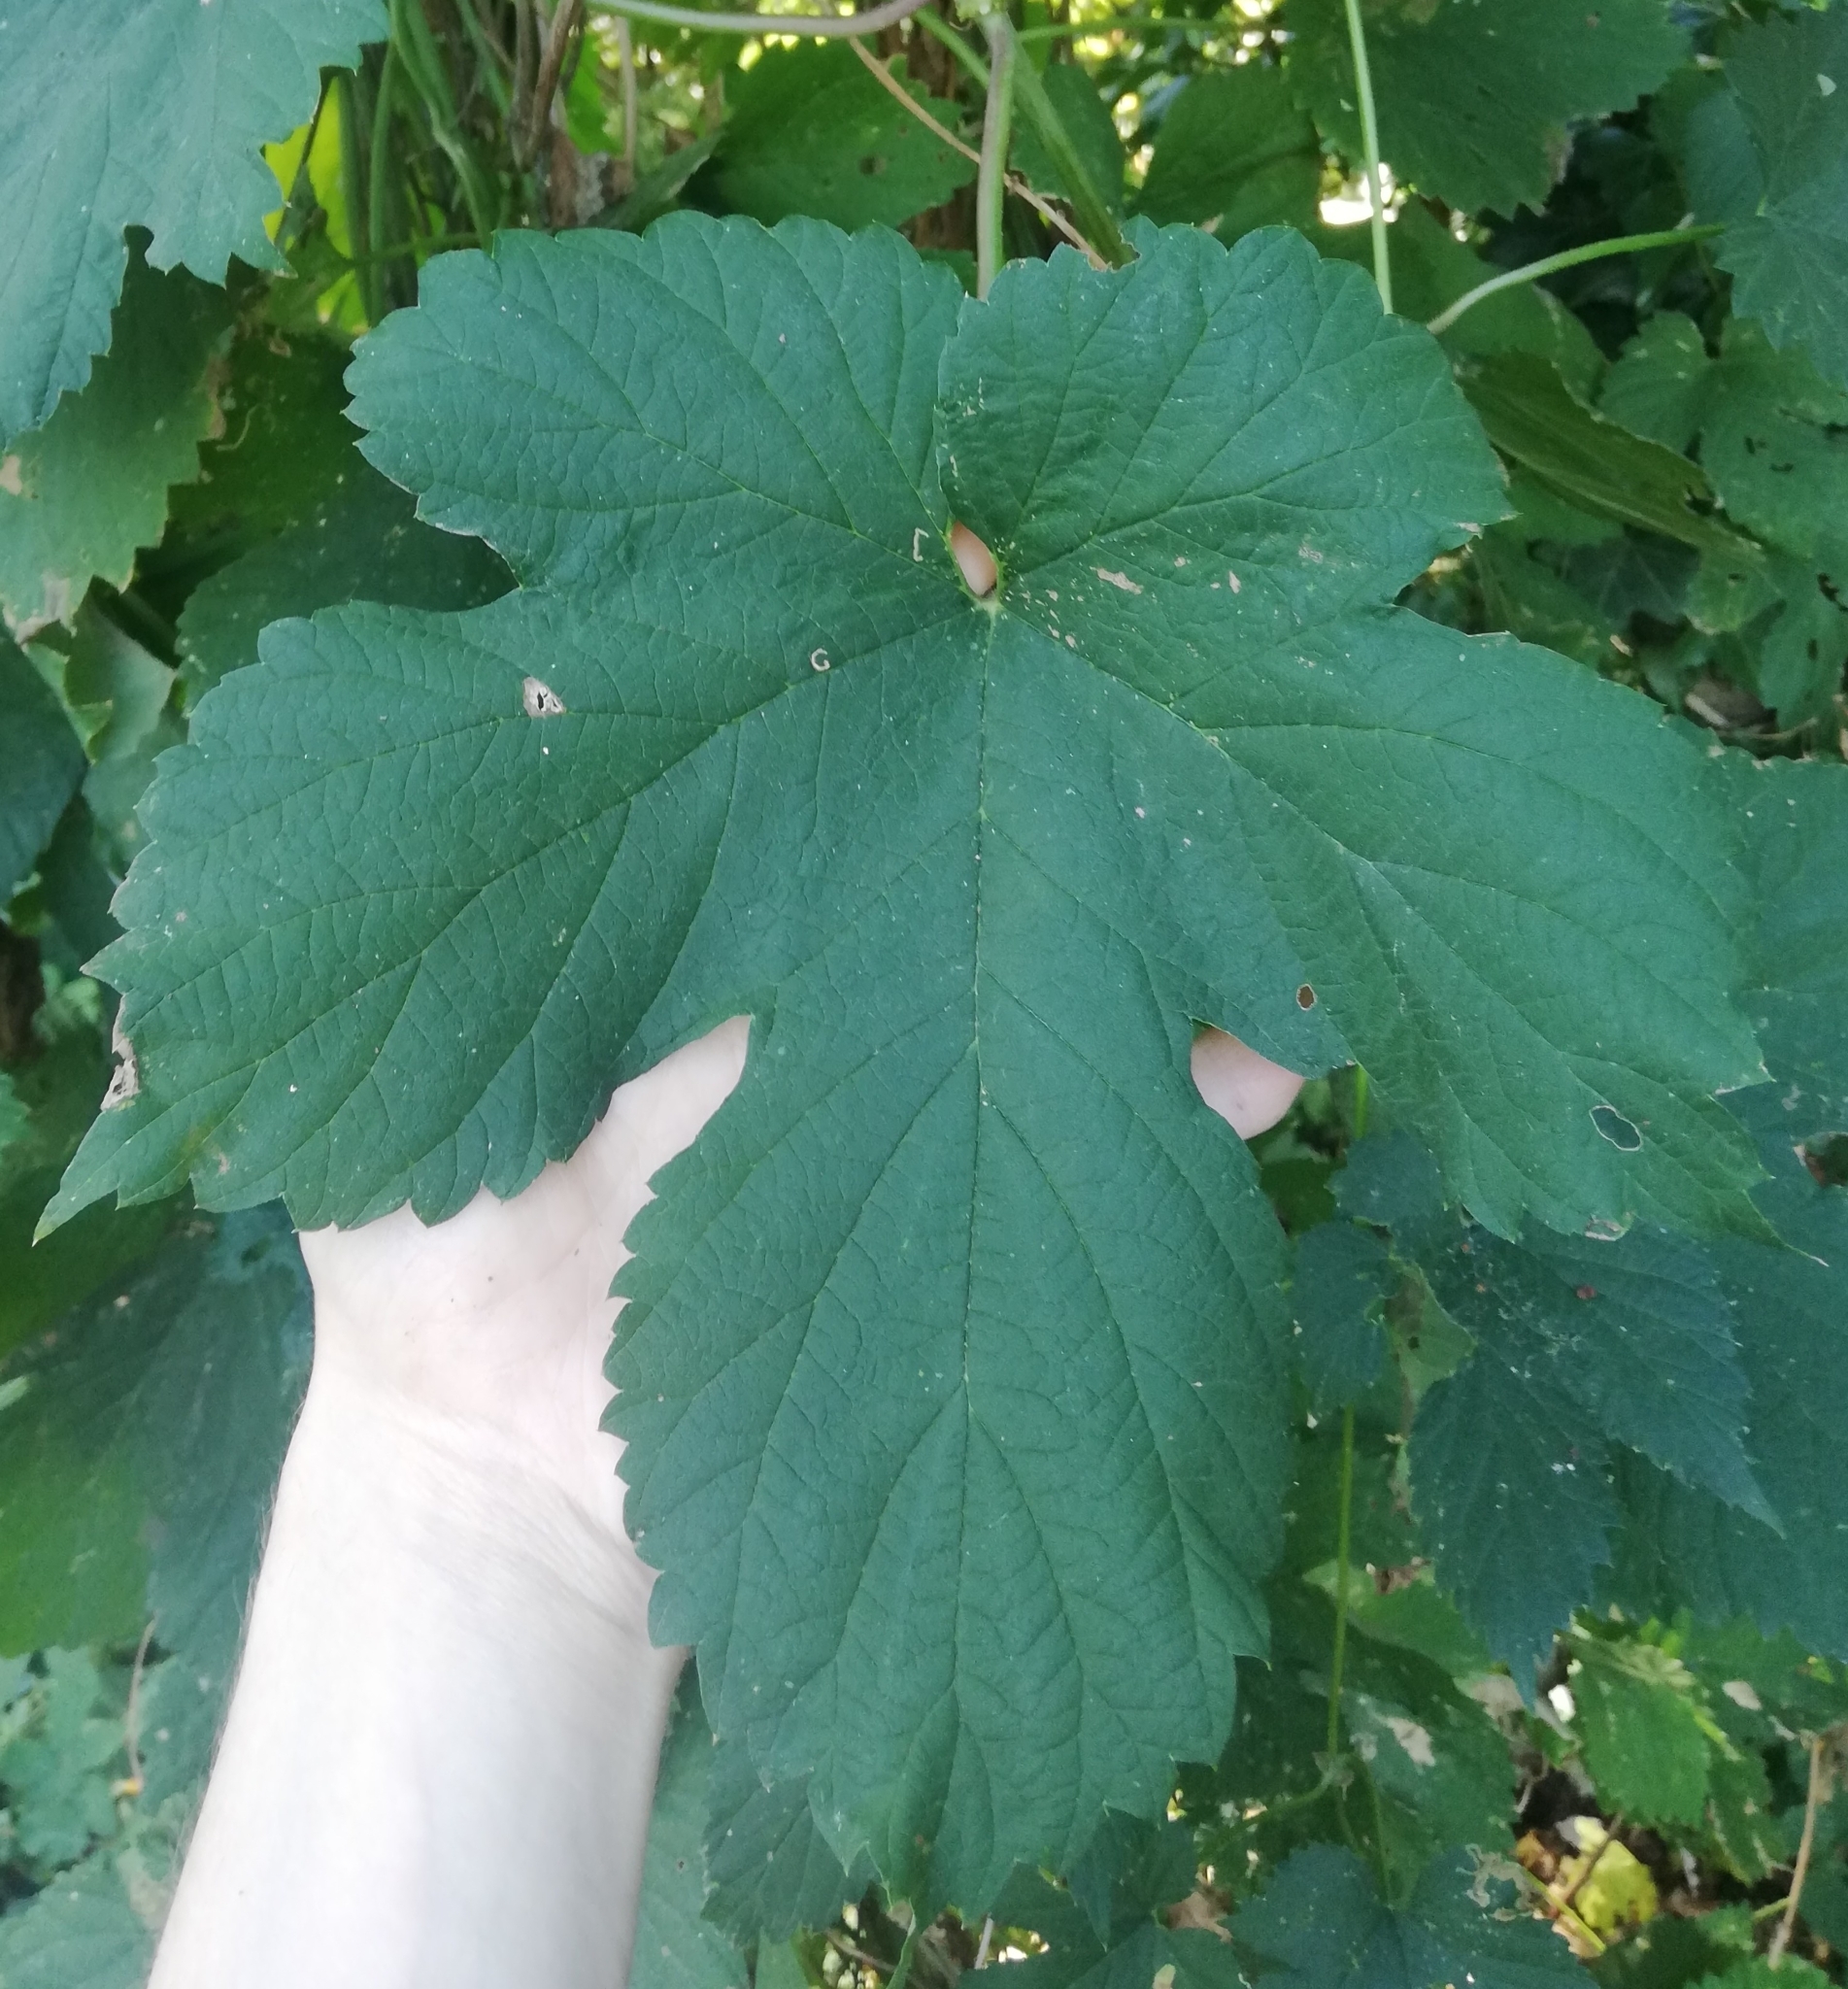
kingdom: Plantae
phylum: Tracheophyta
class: Magnoliopsida
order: Rosales
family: Cannabaceae
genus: Humulus
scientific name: Humulus lupulus
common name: Hop
